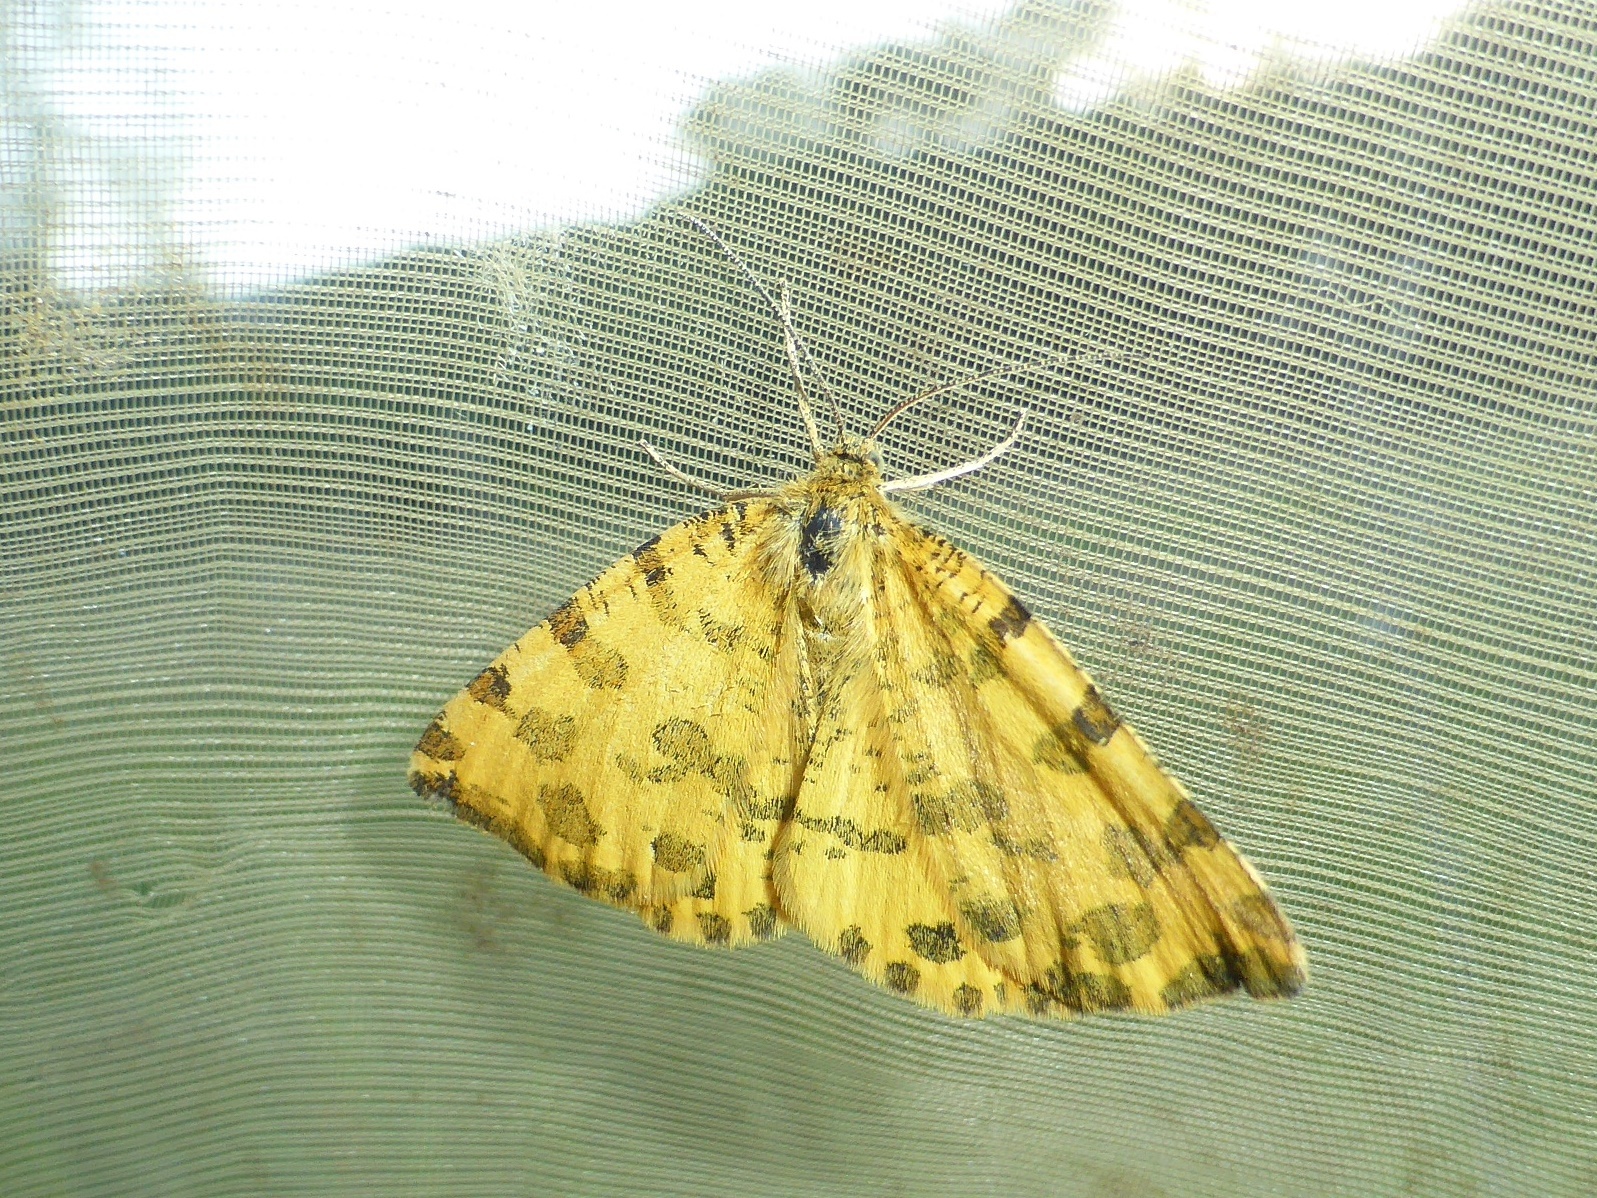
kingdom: Animalia
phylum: Arthropoda
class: Insecta
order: Lepidoptera
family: Geometridae
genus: Pseudopanthera
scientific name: Pseudopanthera macularia
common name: Speckled yellow
